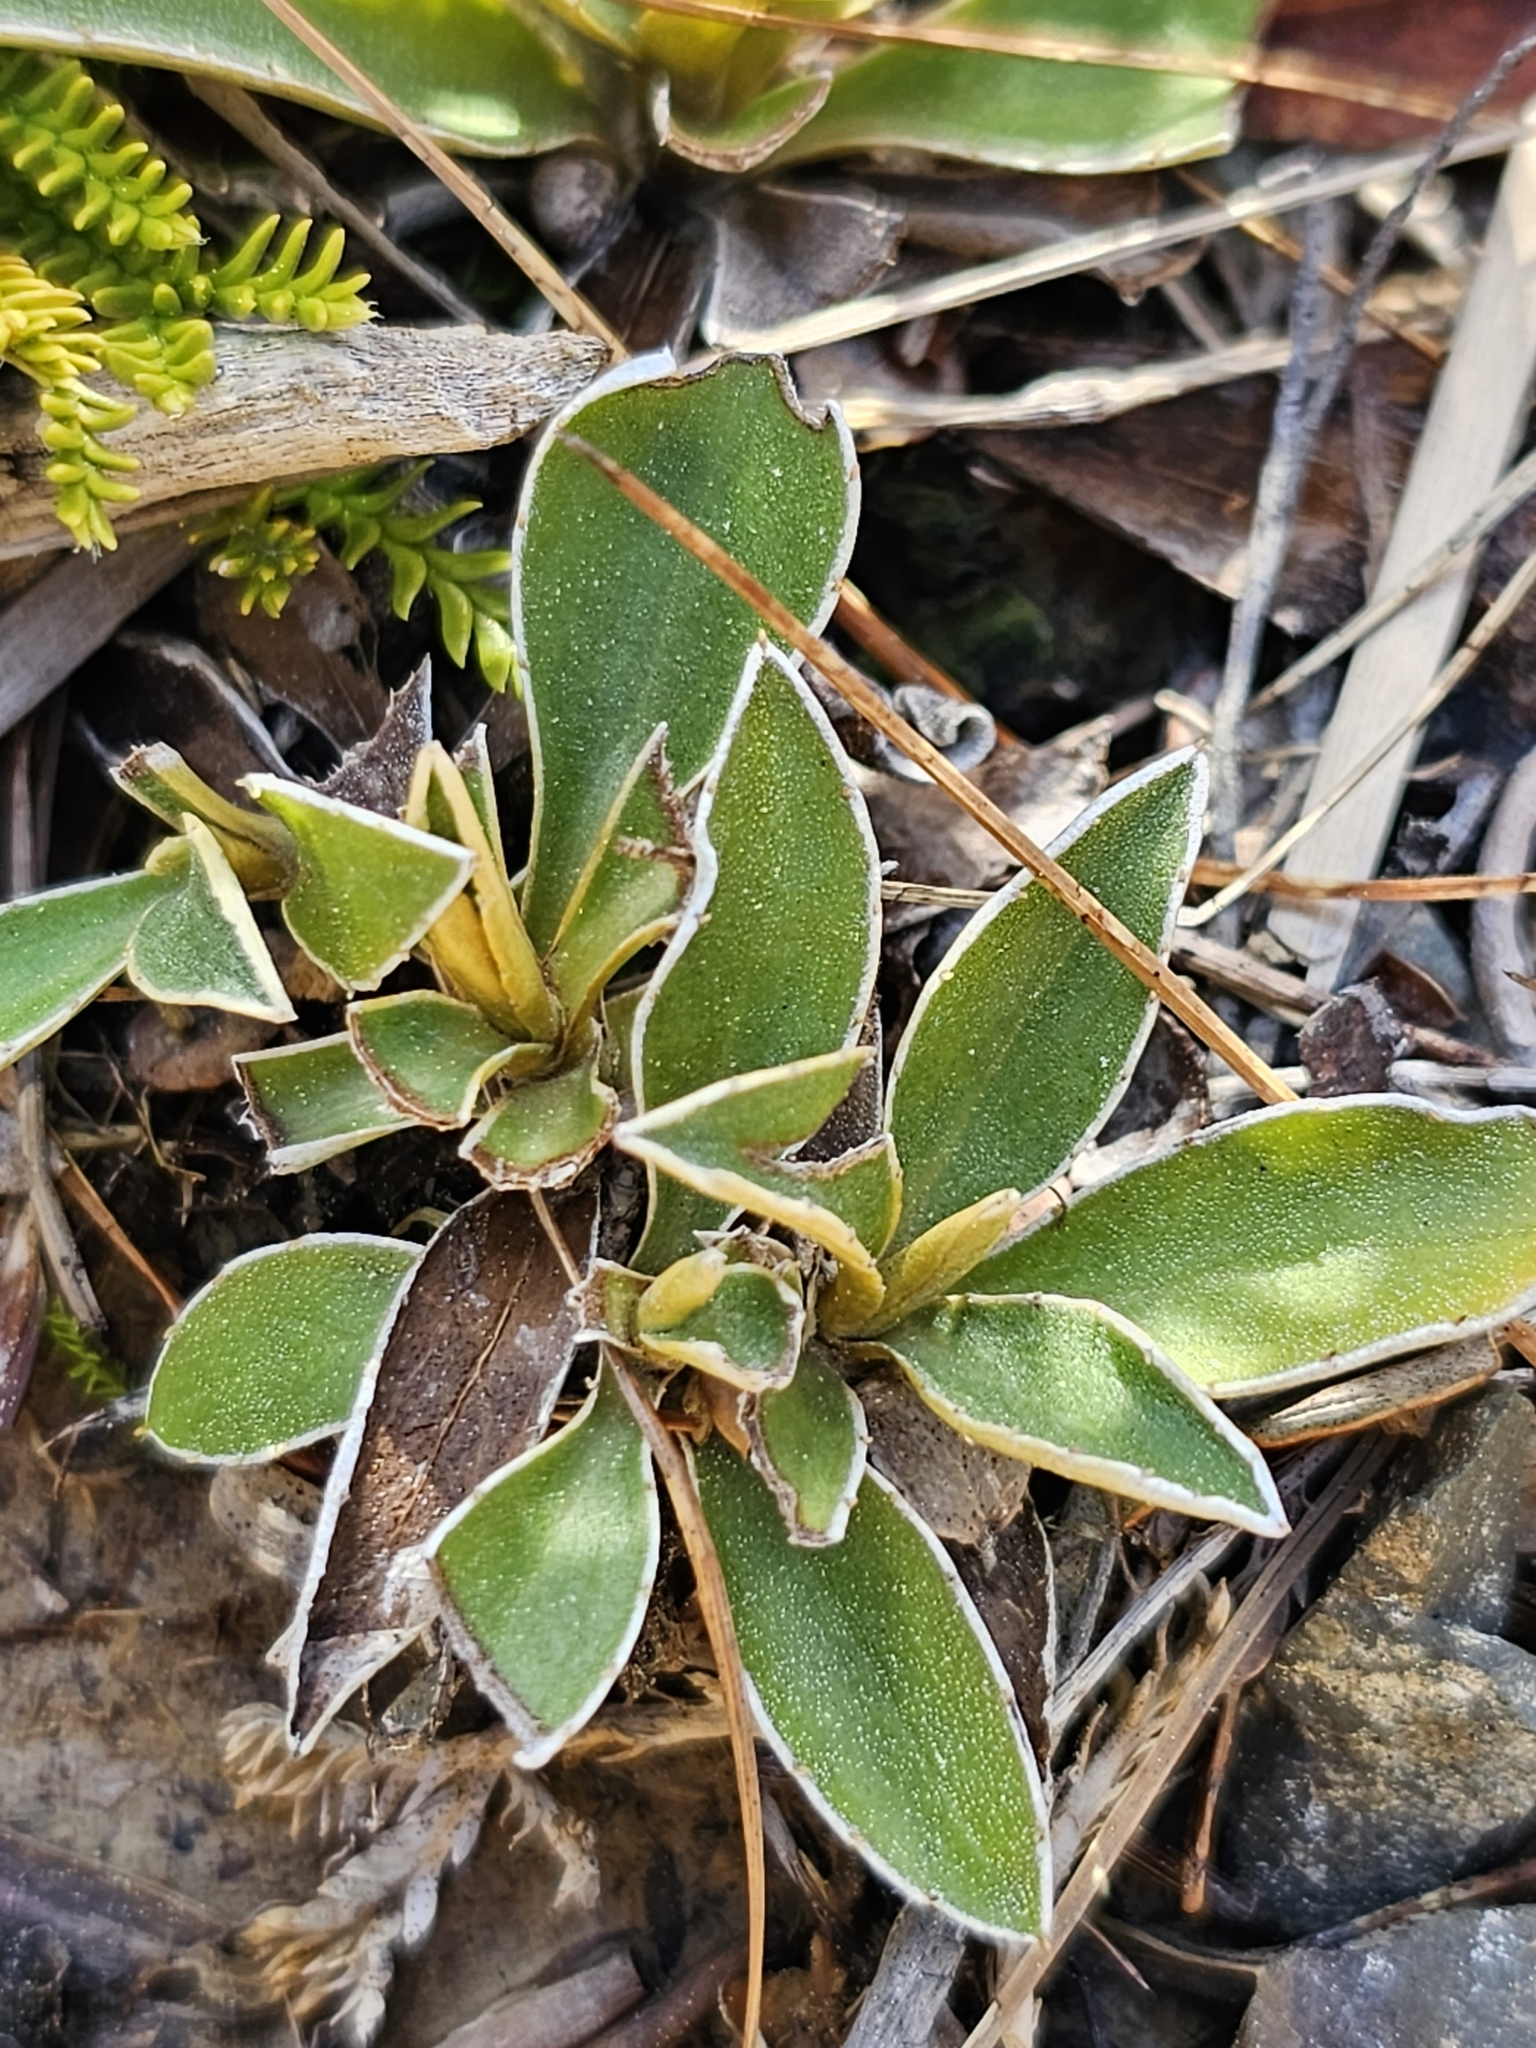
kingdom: Plantae
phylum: Tracheophyta
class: Magnoliopsida
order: Asterales
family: Asteraceae
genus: Celmisia
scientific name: Celmisia hieraciifolia
